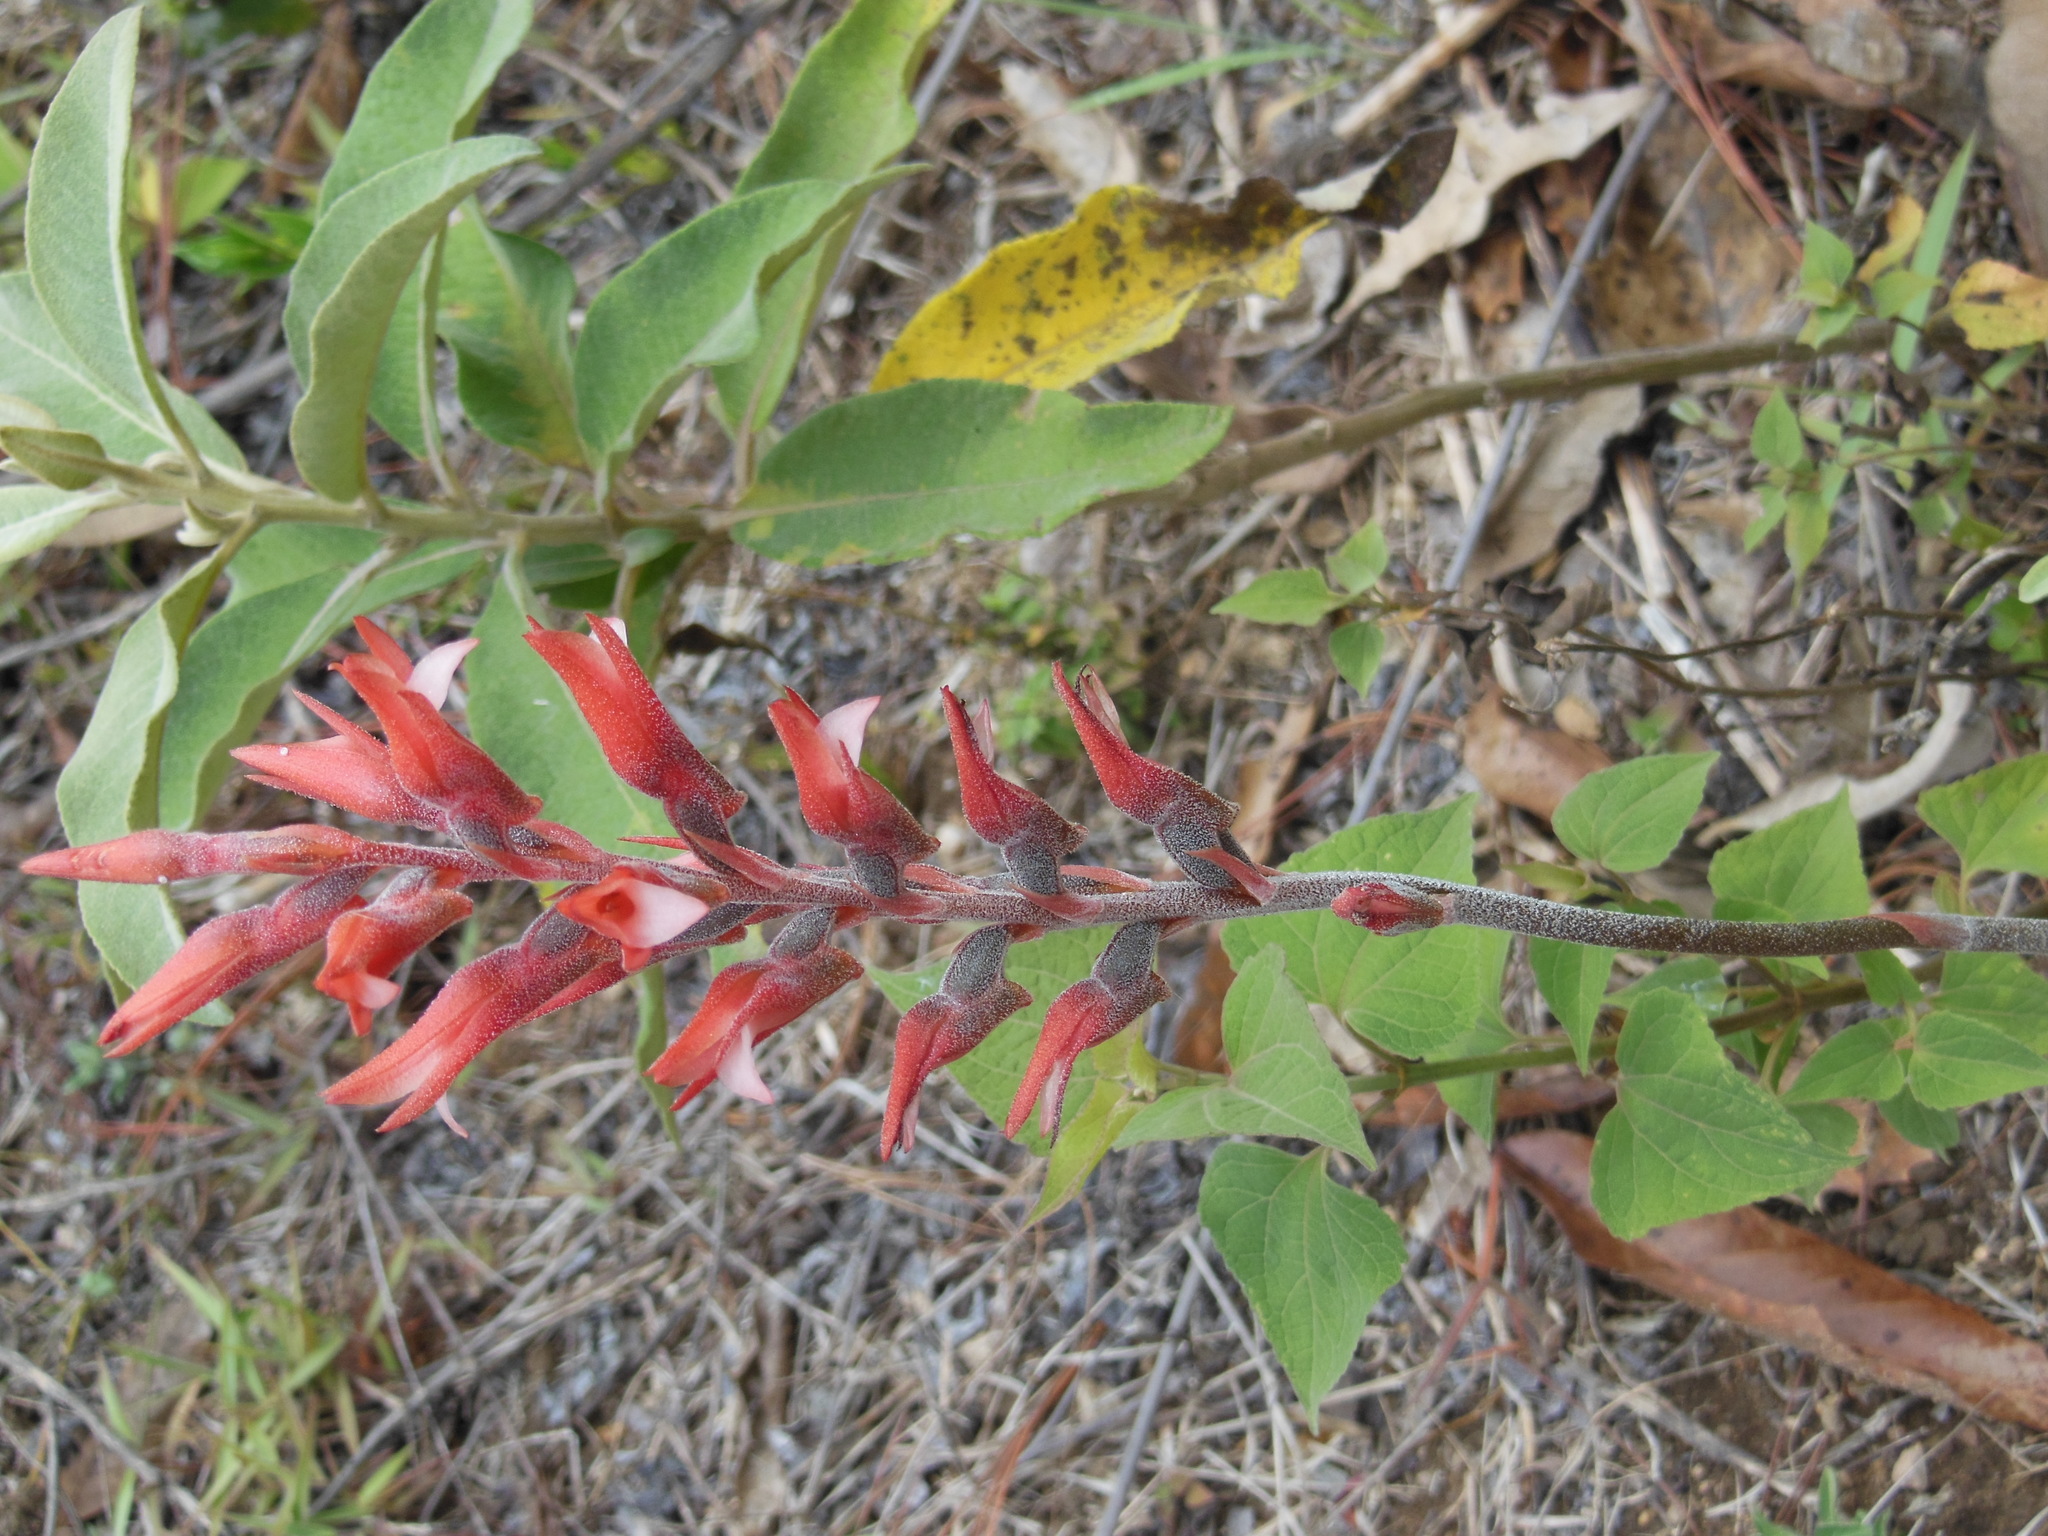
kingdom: Plantae
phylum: Tracheophyta
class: Liliopsida
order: Asparagales
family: Orchidaceae
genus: Sacoila
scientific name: Sacoila lanceolata
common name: Leafless beaked ladiestresses
